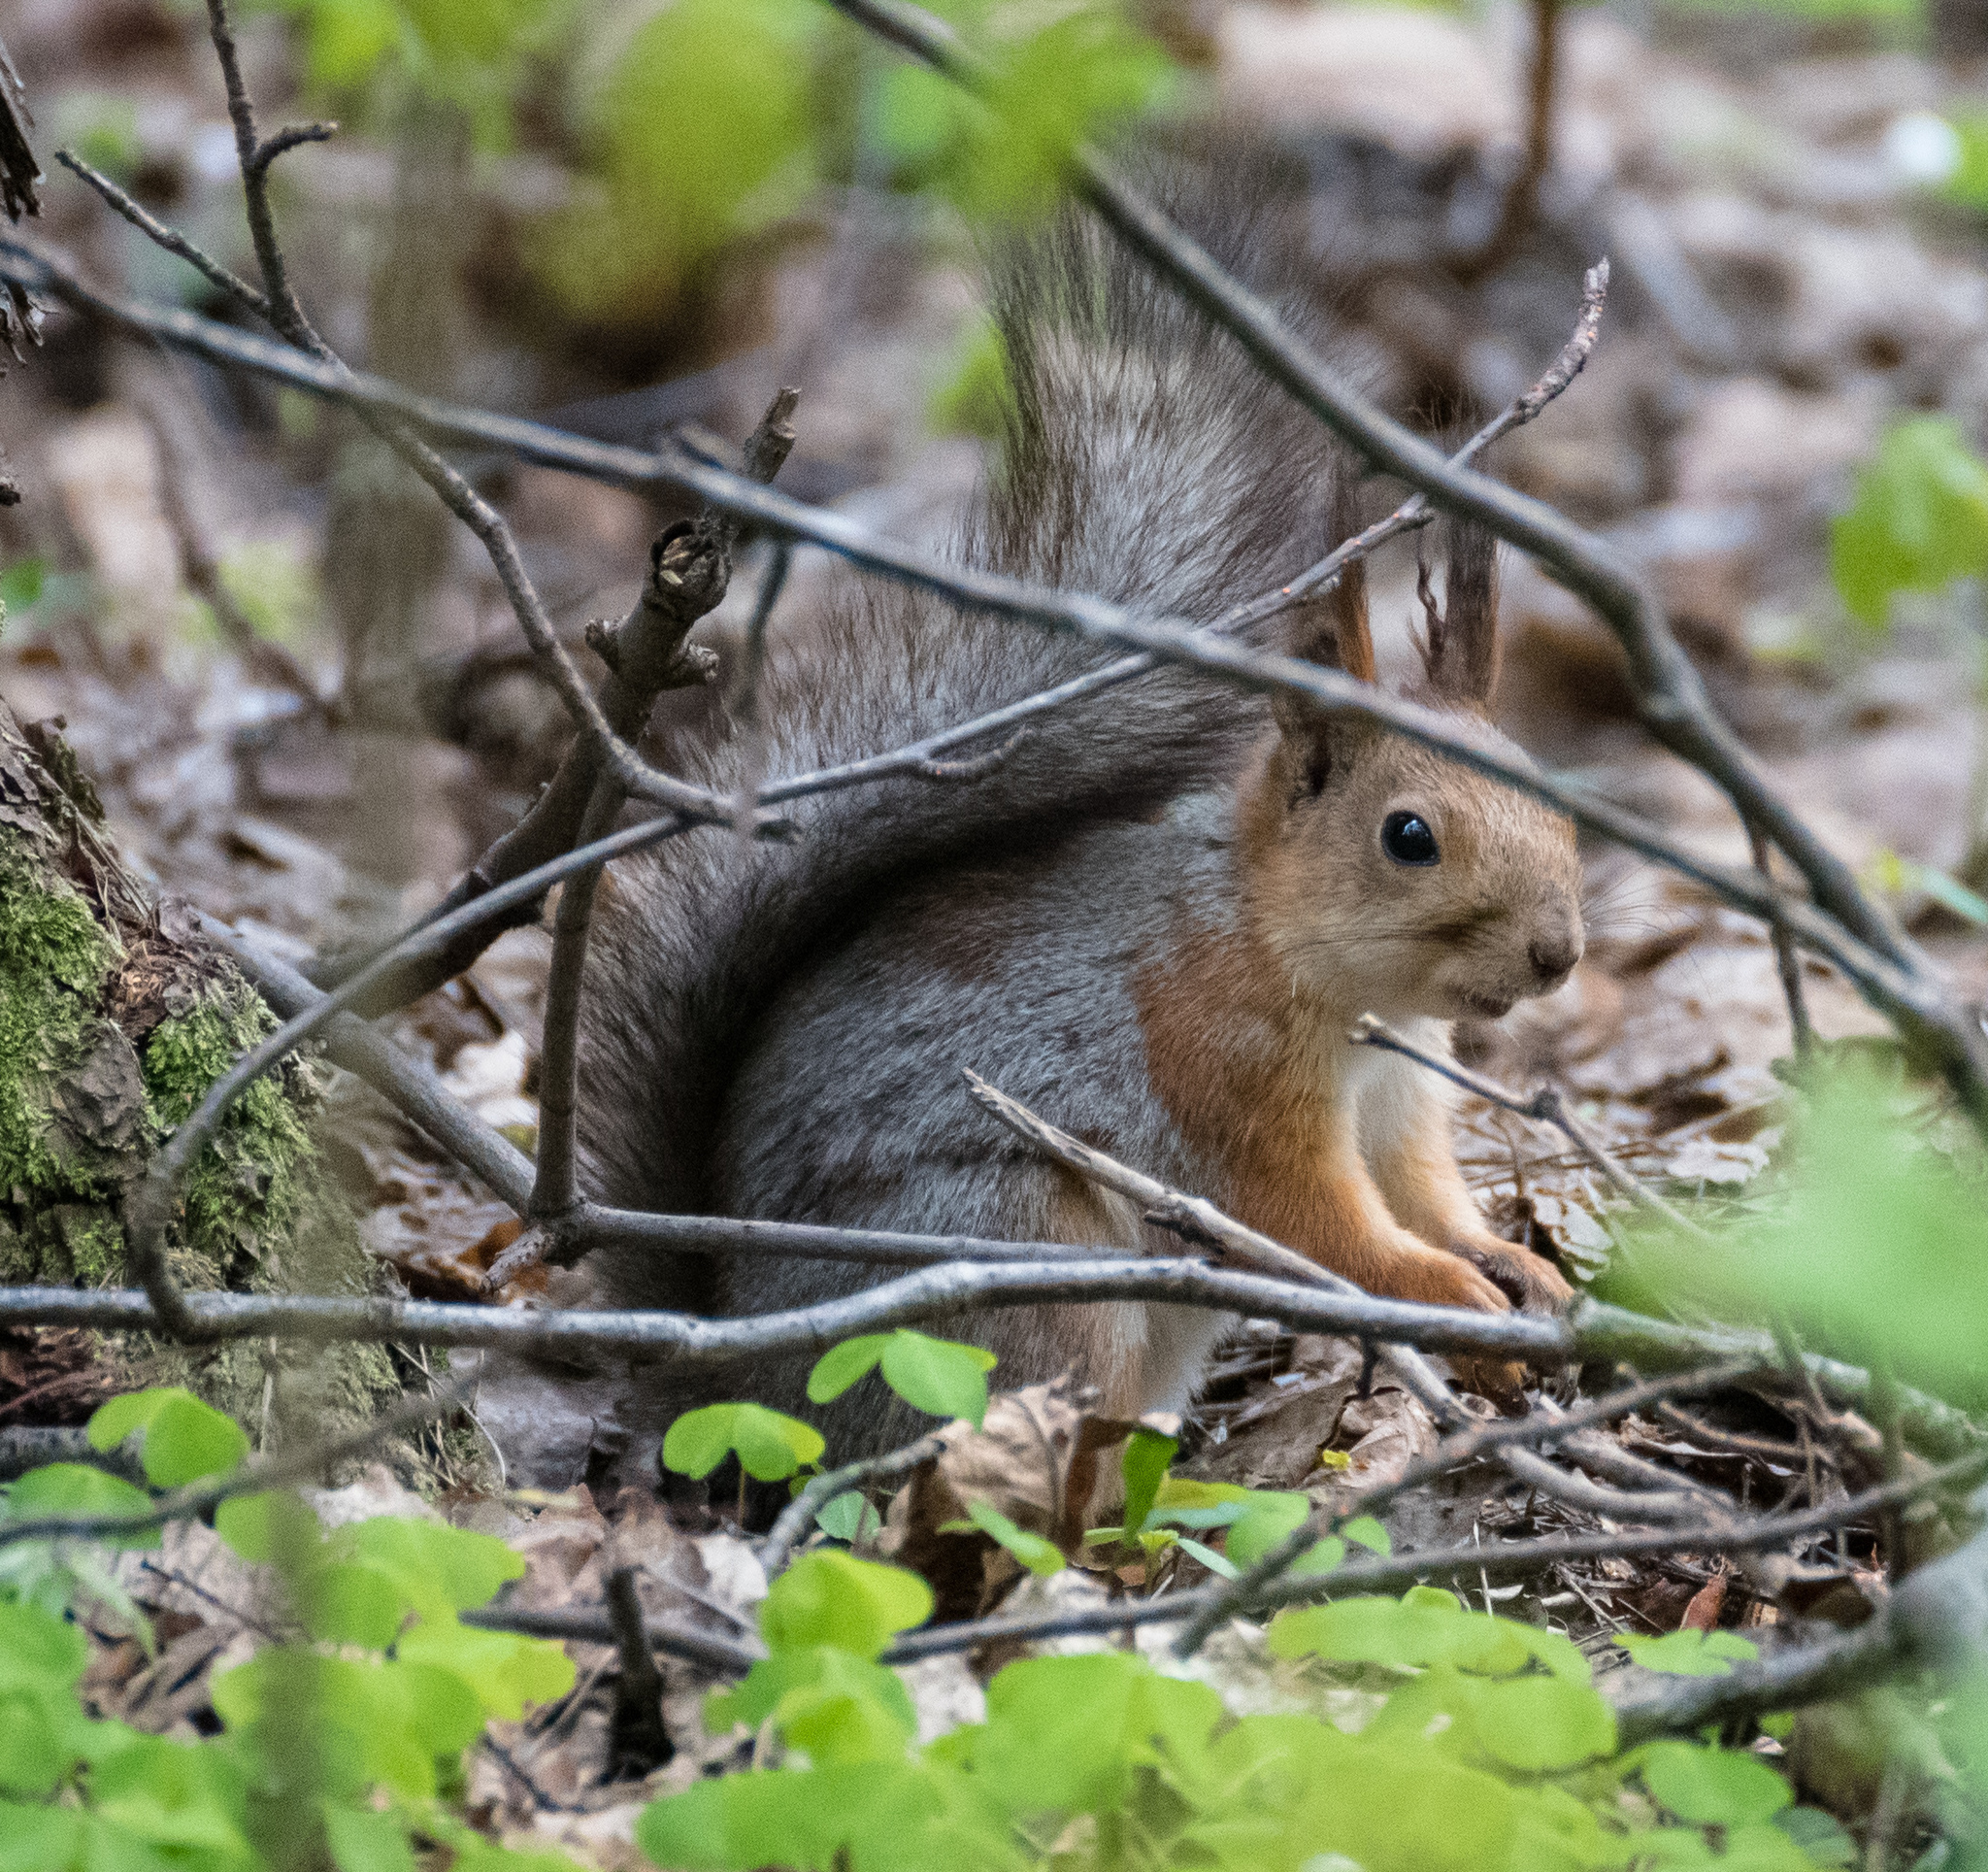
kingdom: Animalia
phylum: Chordata
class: Mammalia
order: Rodentia
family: Sciuridae
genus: Sciurus
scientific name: Sciurus vulgaris
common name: Eurasian red squirrel
